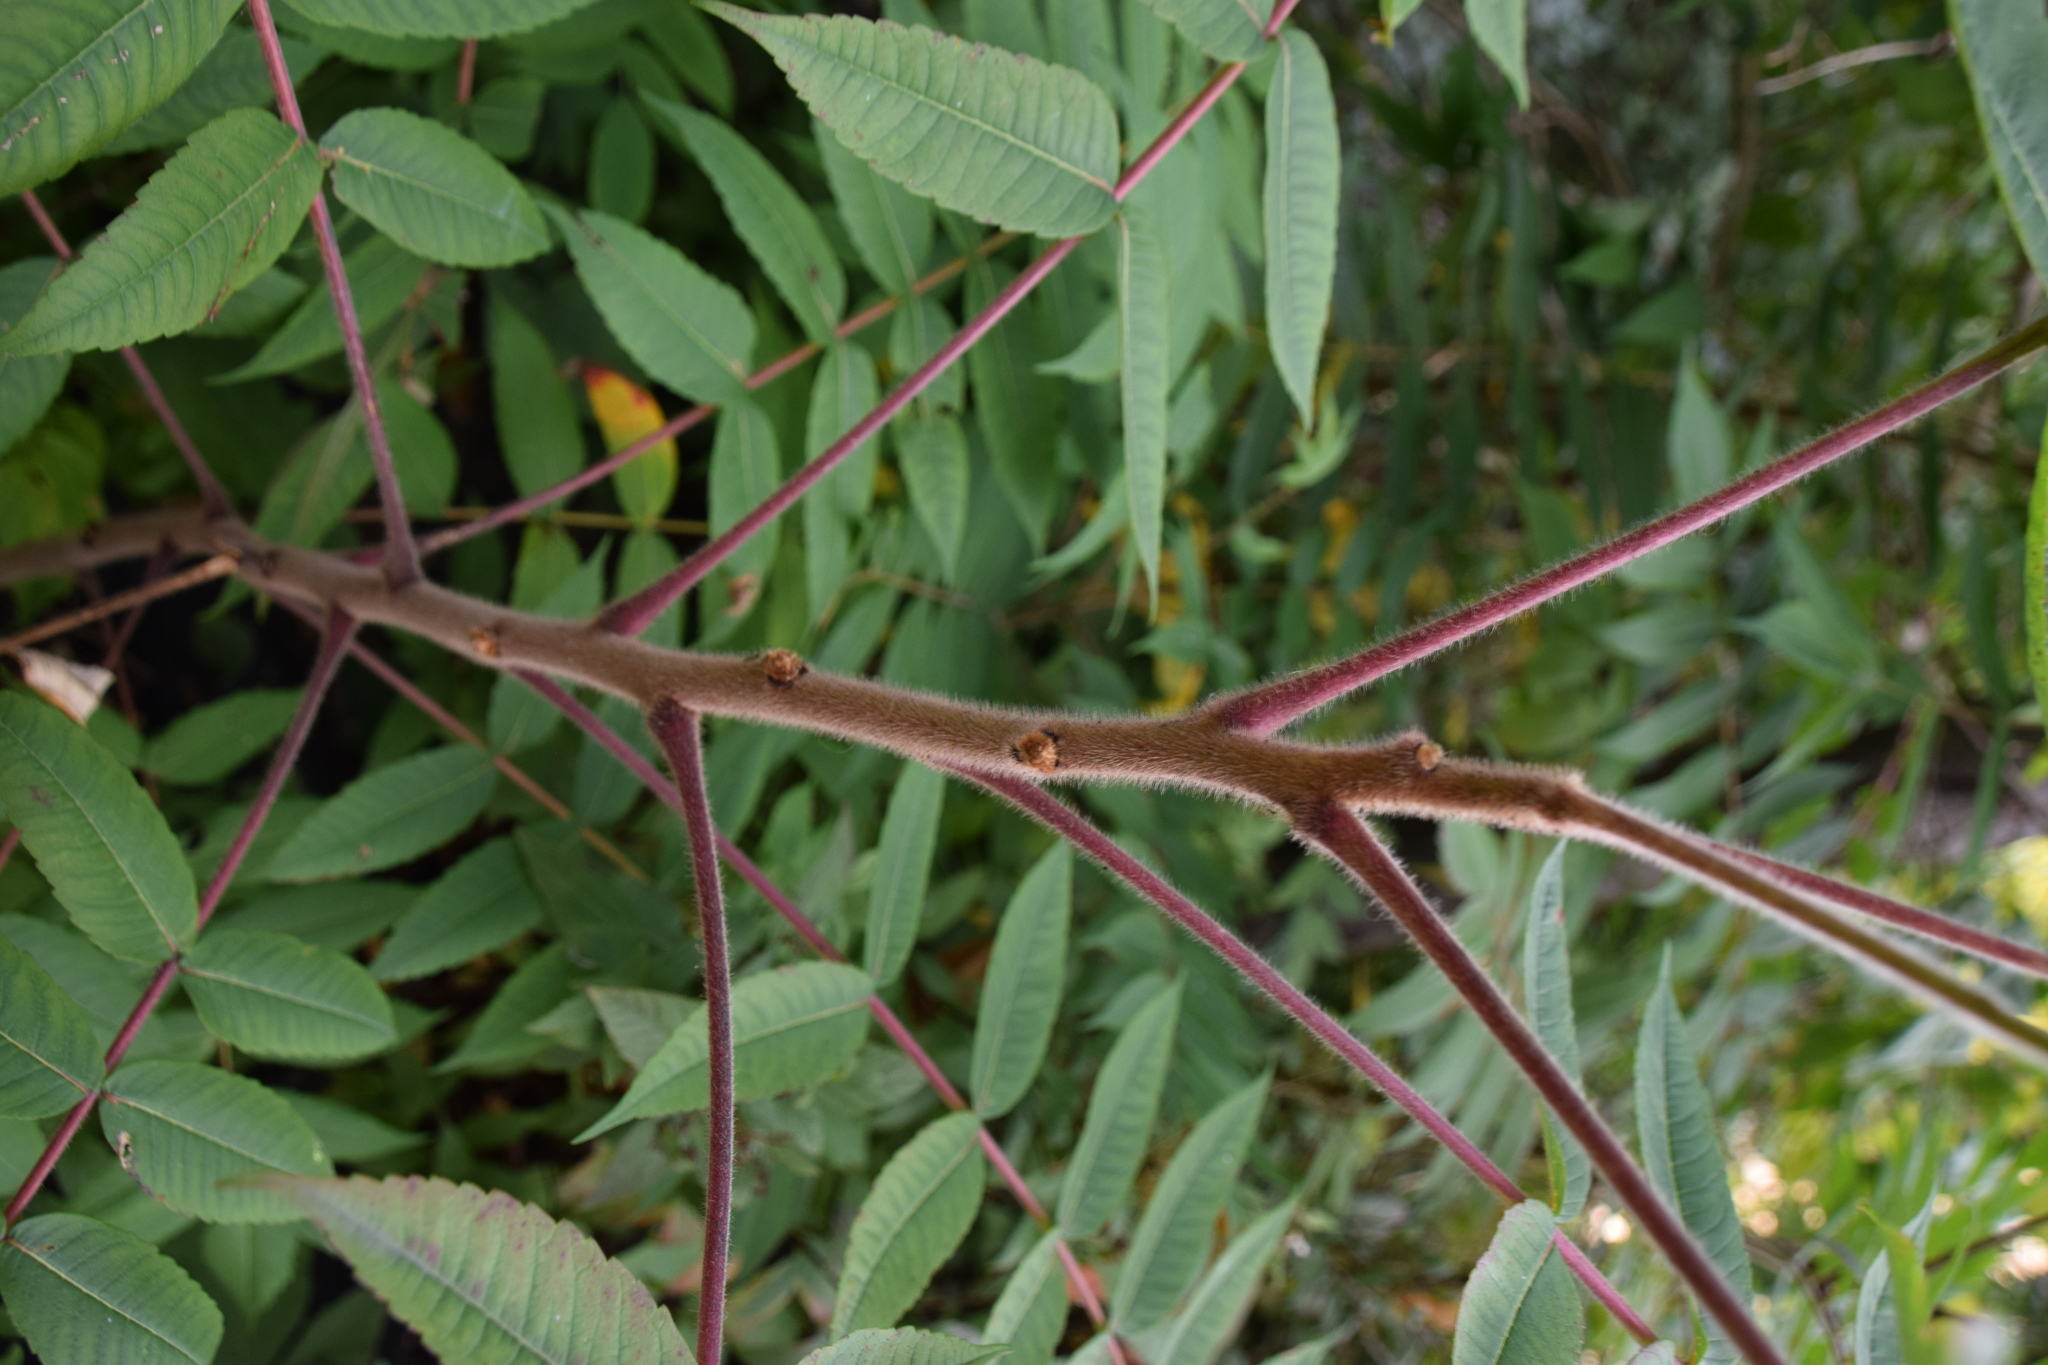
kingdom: Plantae
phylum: Tracheophyta
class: Magnoliopsida
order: Sapindales
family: Anacardiaceae
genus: Rhus
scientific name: Rhus typhina
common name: Staghorn sumac
